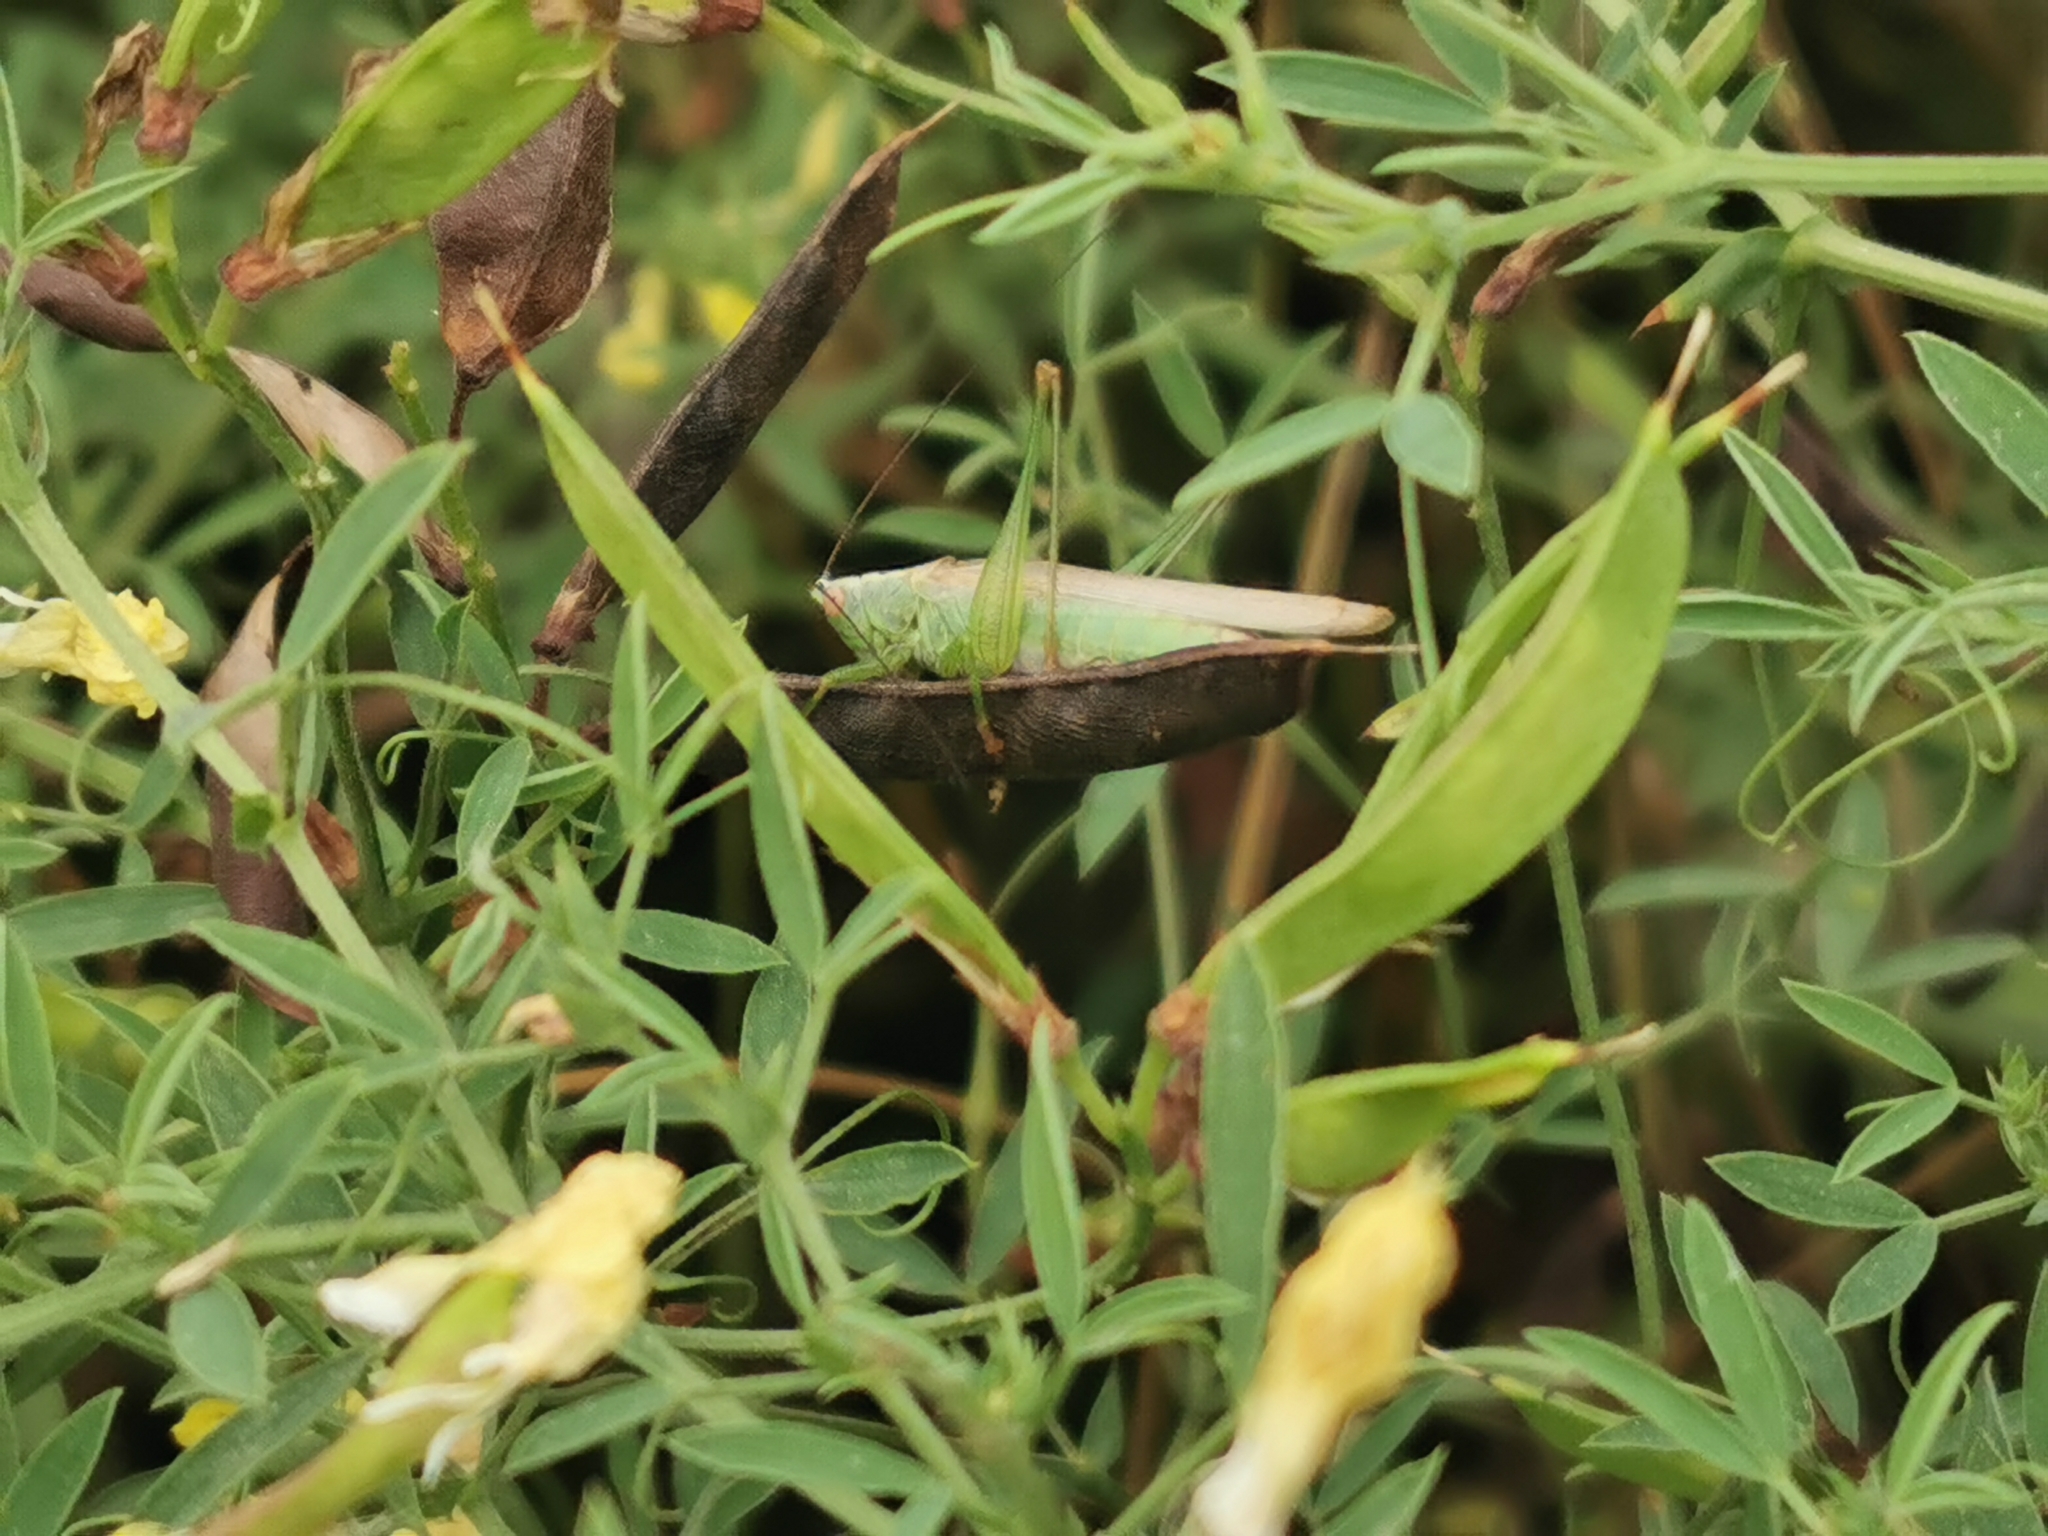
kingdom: Animalia
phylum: Arthropoda
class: Insecta
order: Orthoptera
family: Tettigoniidae
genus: Conocephalus
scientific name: Conocephalus fuscus
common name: Long-winged conehead
